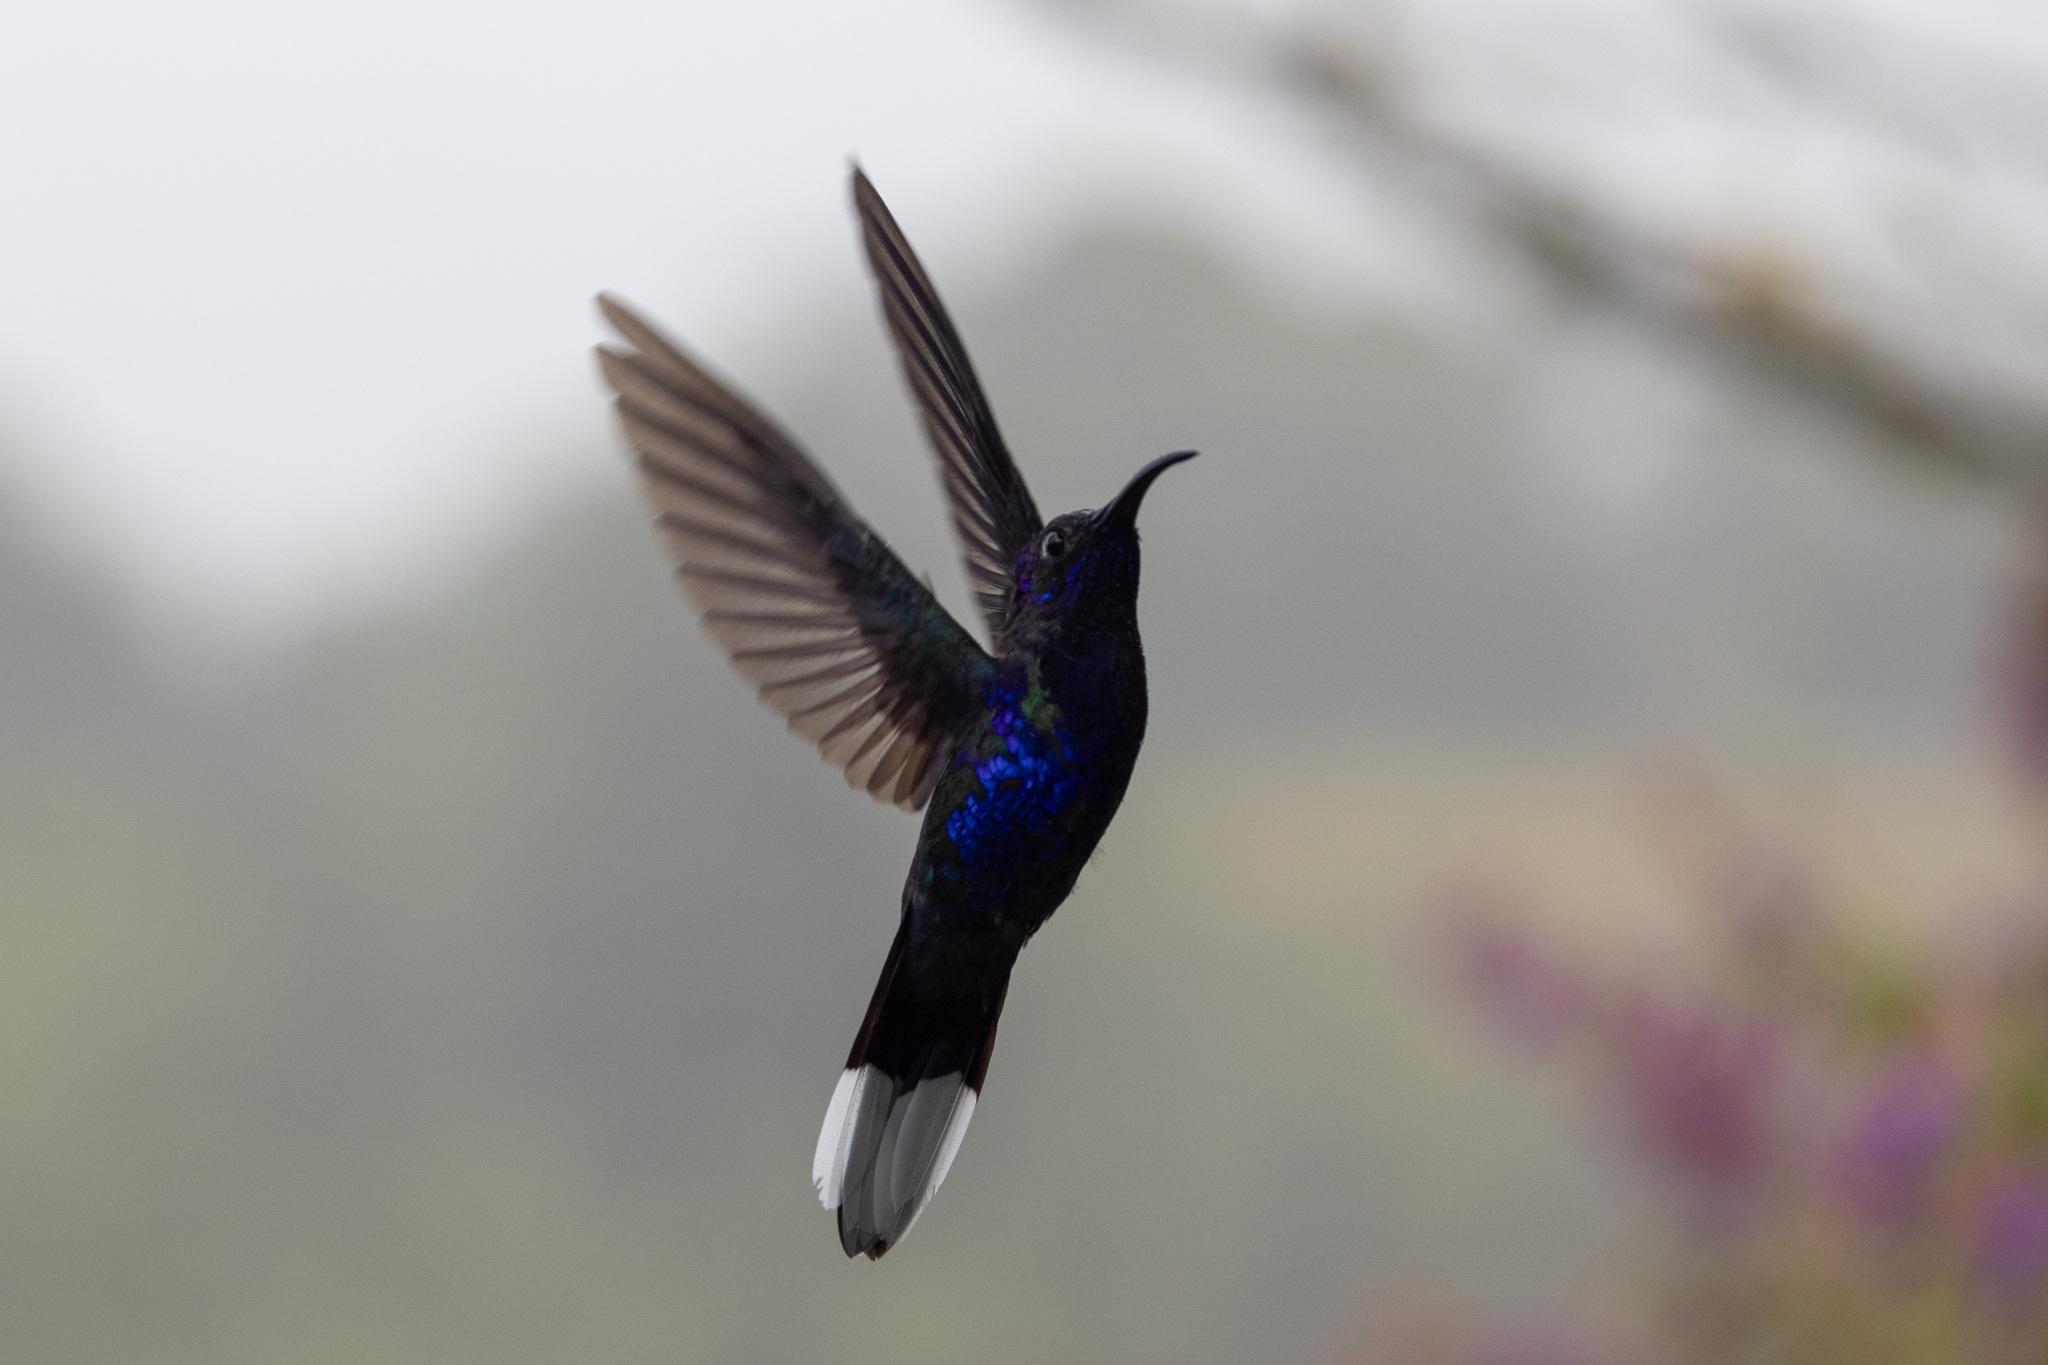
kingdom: Animalia
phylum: Chordata
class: Aves
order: Apodiformes
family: Trochilidae
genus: Campylopterus
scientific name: Campylopterus hemileucurus
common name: Violet sabrewing
